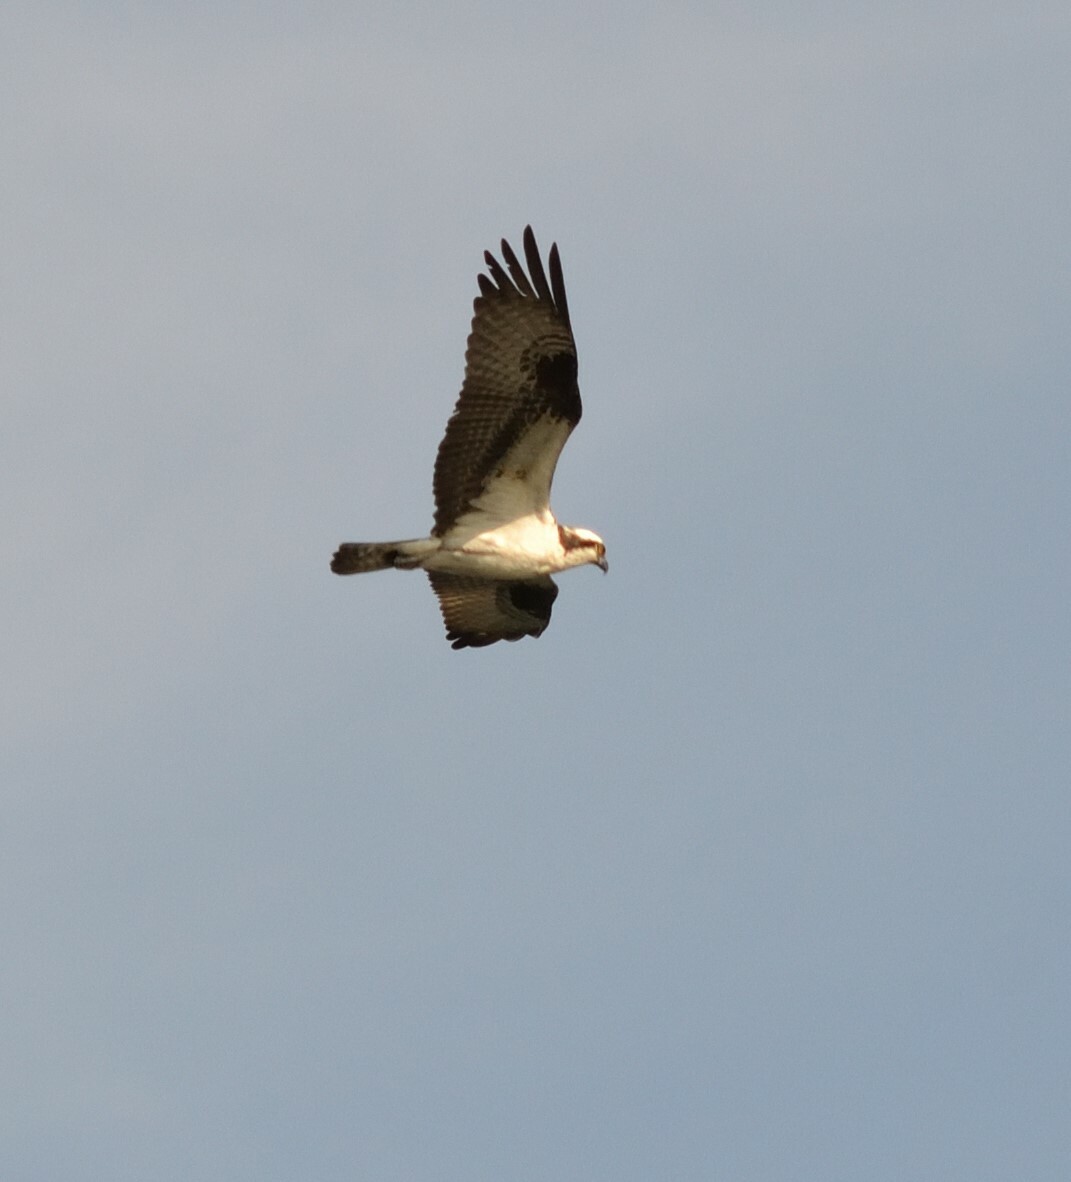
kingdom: Animalia
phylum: Chordata
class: Aves
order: Accipitriformes
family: Pandionidae
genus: Pandion
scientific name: Pandion haliaetus
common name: Osprey
